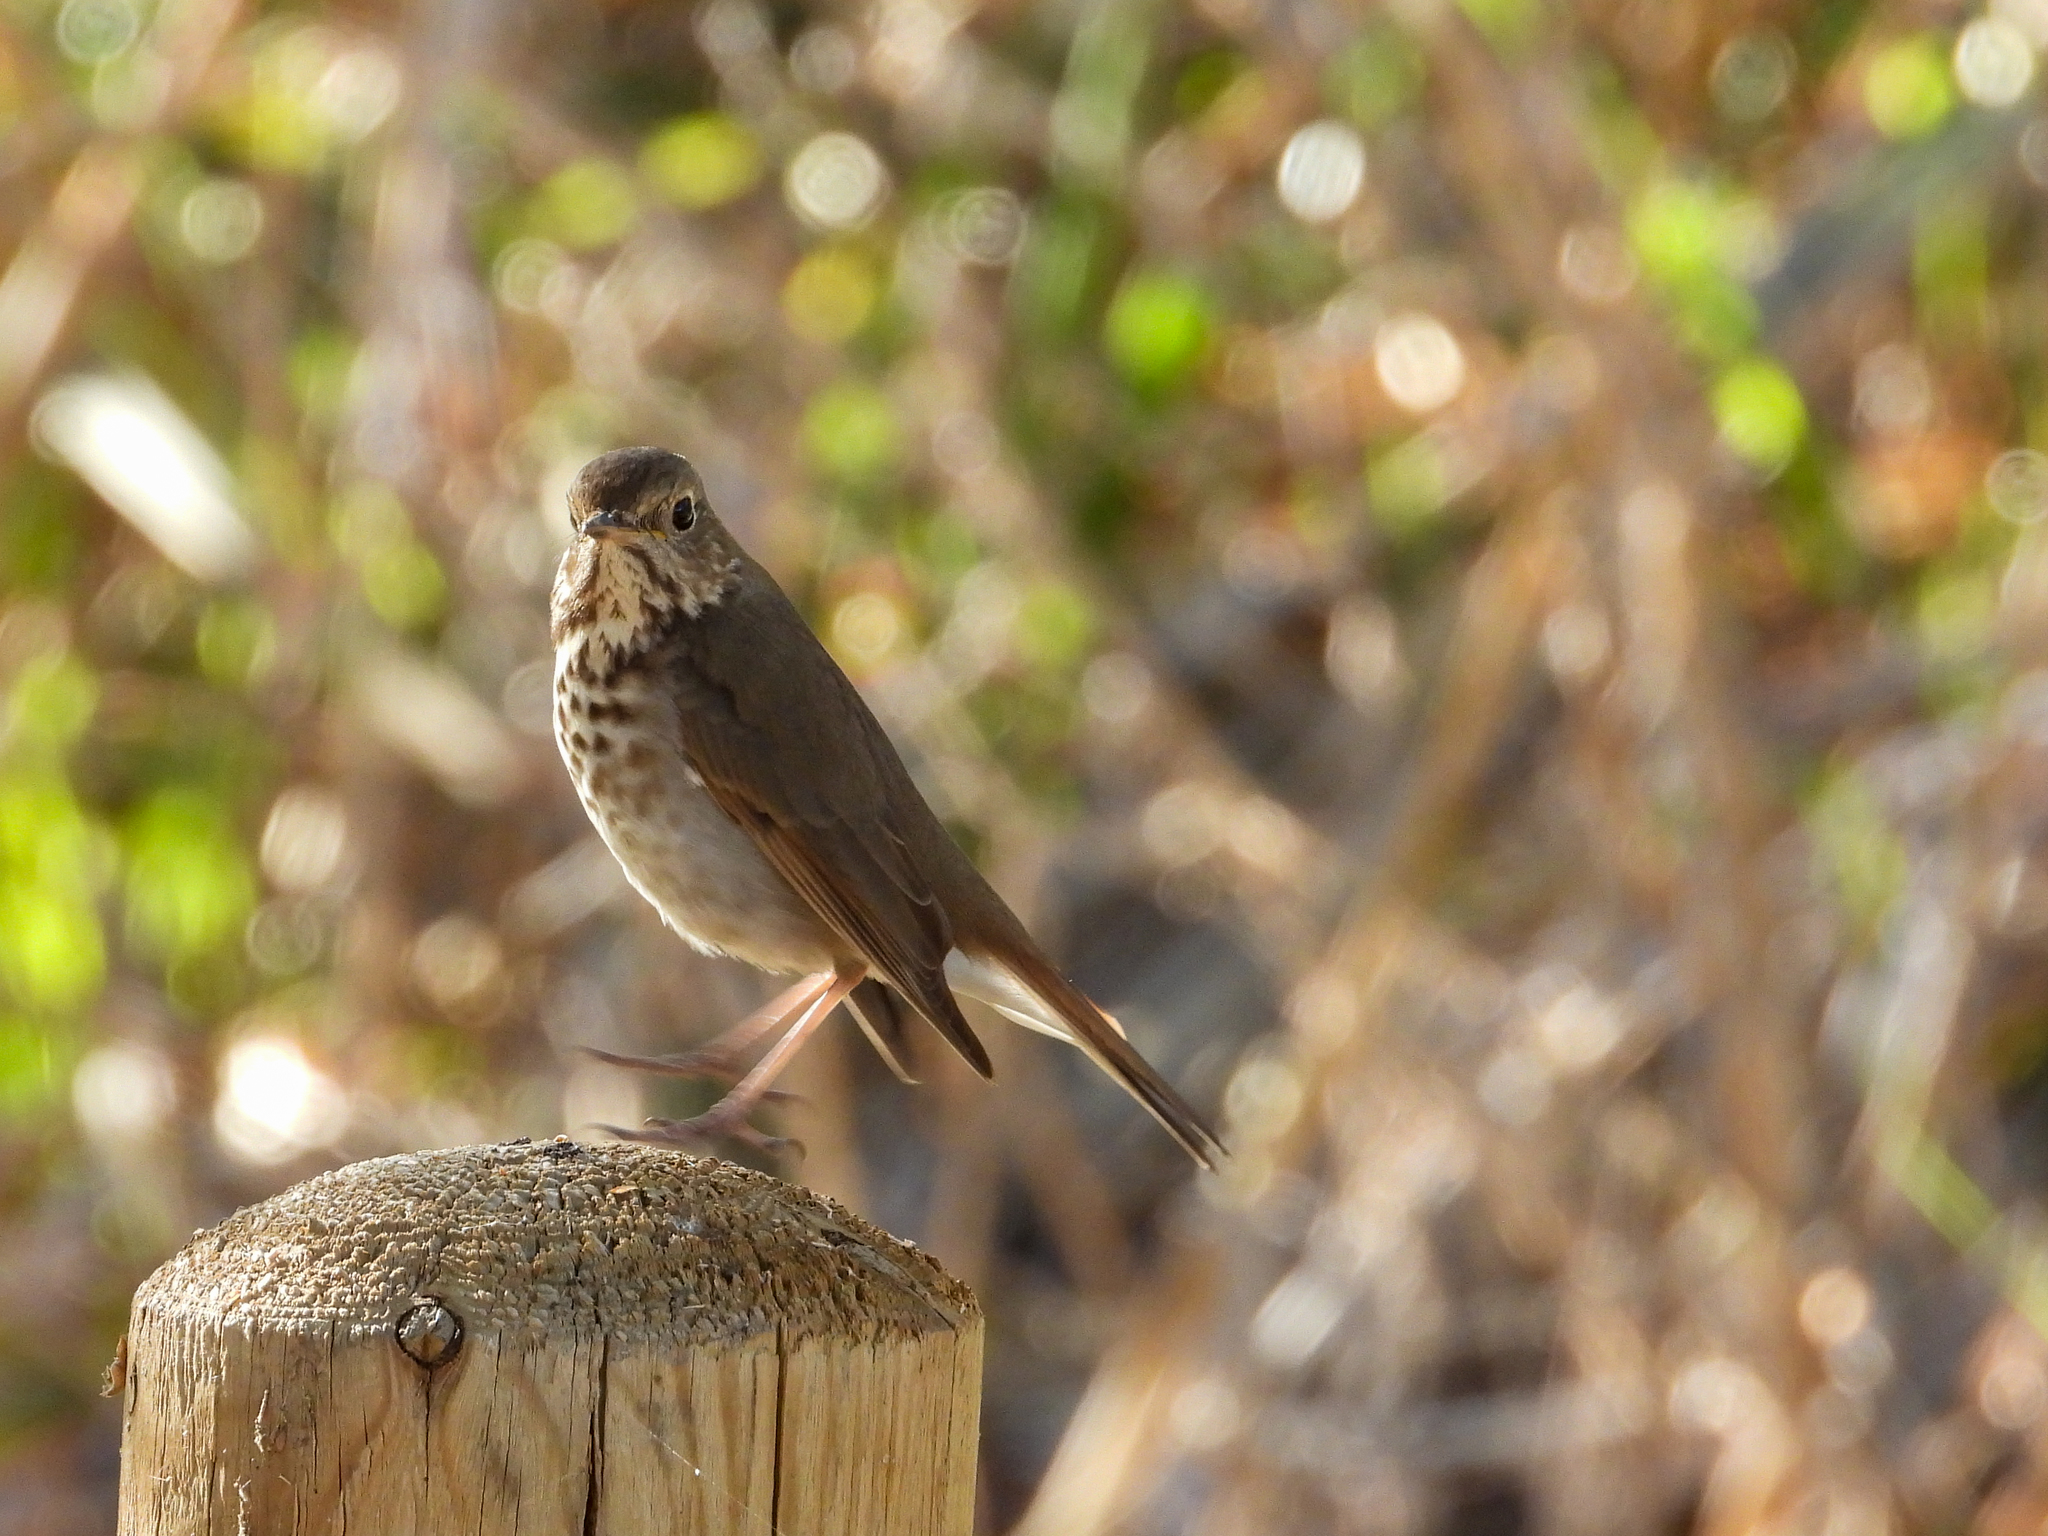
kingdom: Animalia
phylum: Chordata
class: Aves
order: Passeriformes
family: Turdidae
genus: Catharus
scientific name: Catharus guttatus
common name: Hermit thrush
